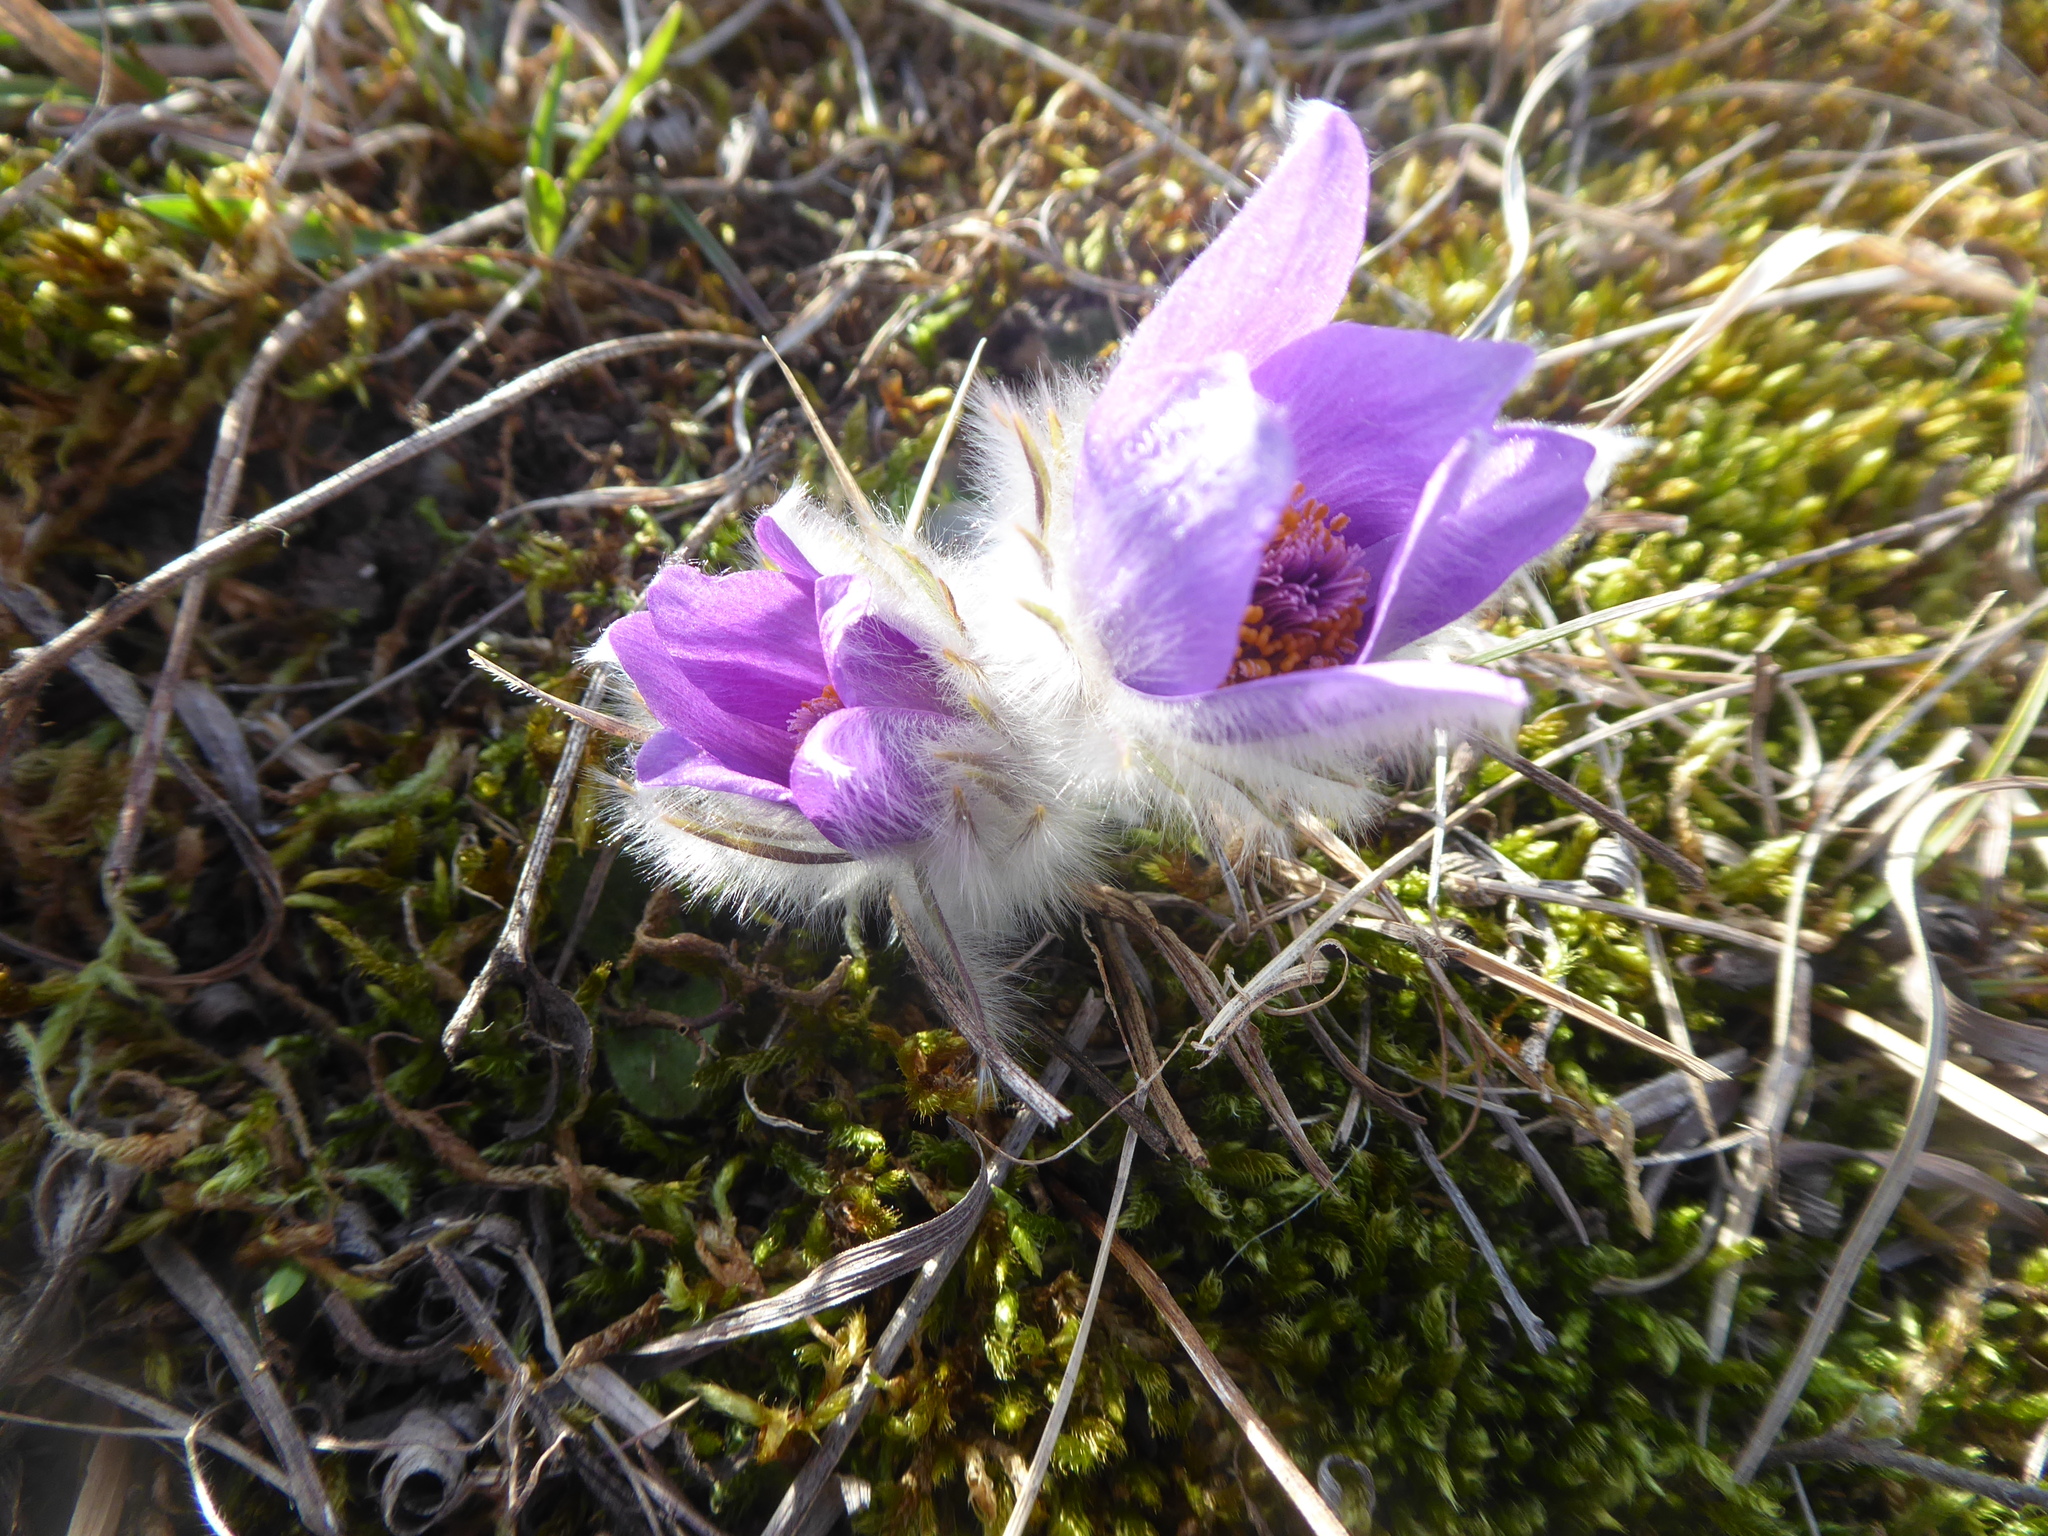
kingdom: Plantae
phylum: Tracheophyta
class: Magnoliopsida
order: Ranunculales
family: Ranunculaceae
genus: Pulsatilla
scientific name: Pulsatilla grandis
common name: Greater pasque flower
